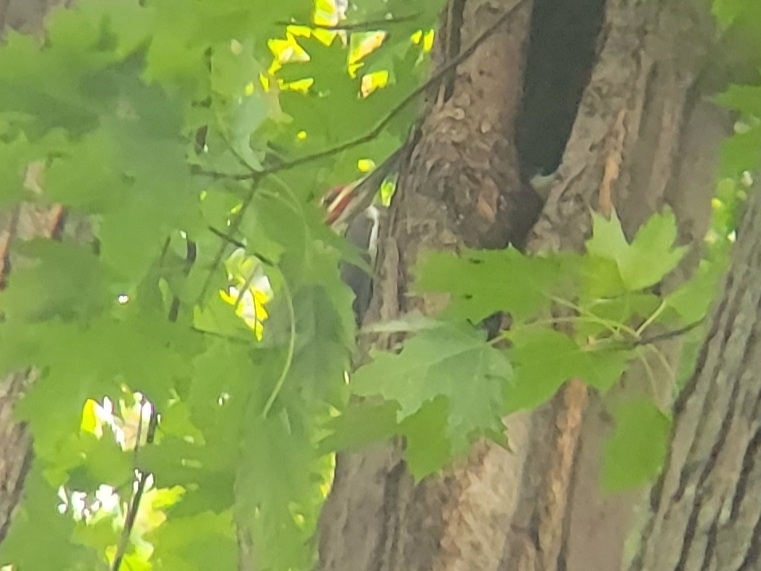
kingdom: Animalia
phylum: Chordata
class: Aves
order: Piciformes
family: Picidae
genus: Dryocopus
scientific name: Dryocopus pileatus
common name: Pileated woodpecker
